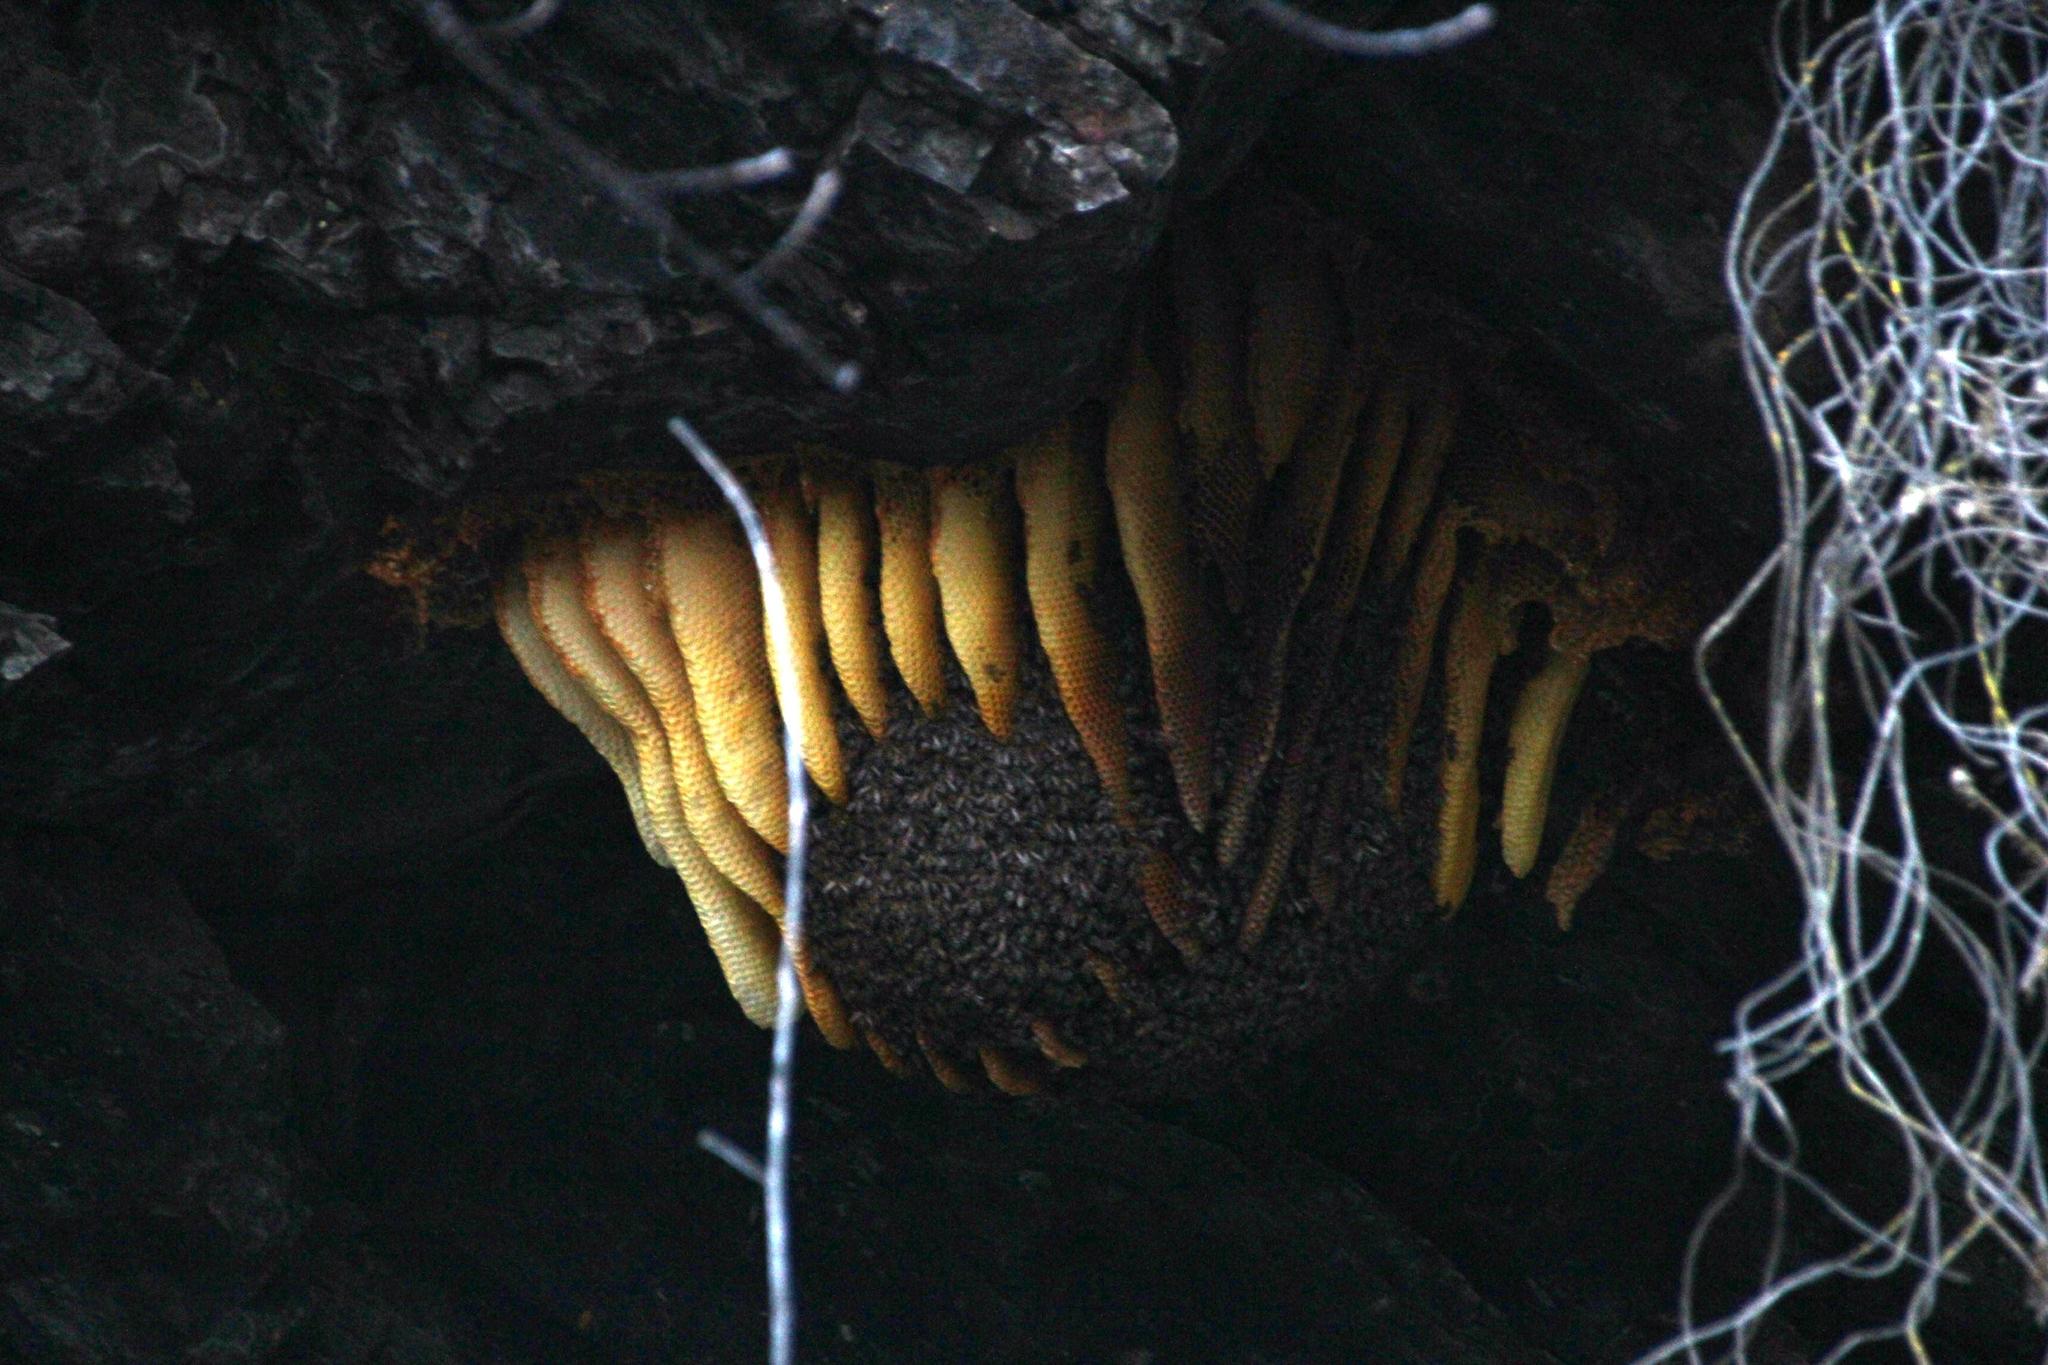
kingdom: Animalia
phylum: Arthropoda
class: Insecta
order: Hymenoptera
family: Apidae
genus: Apis
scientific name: Apis mellifera
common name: Honey bee
